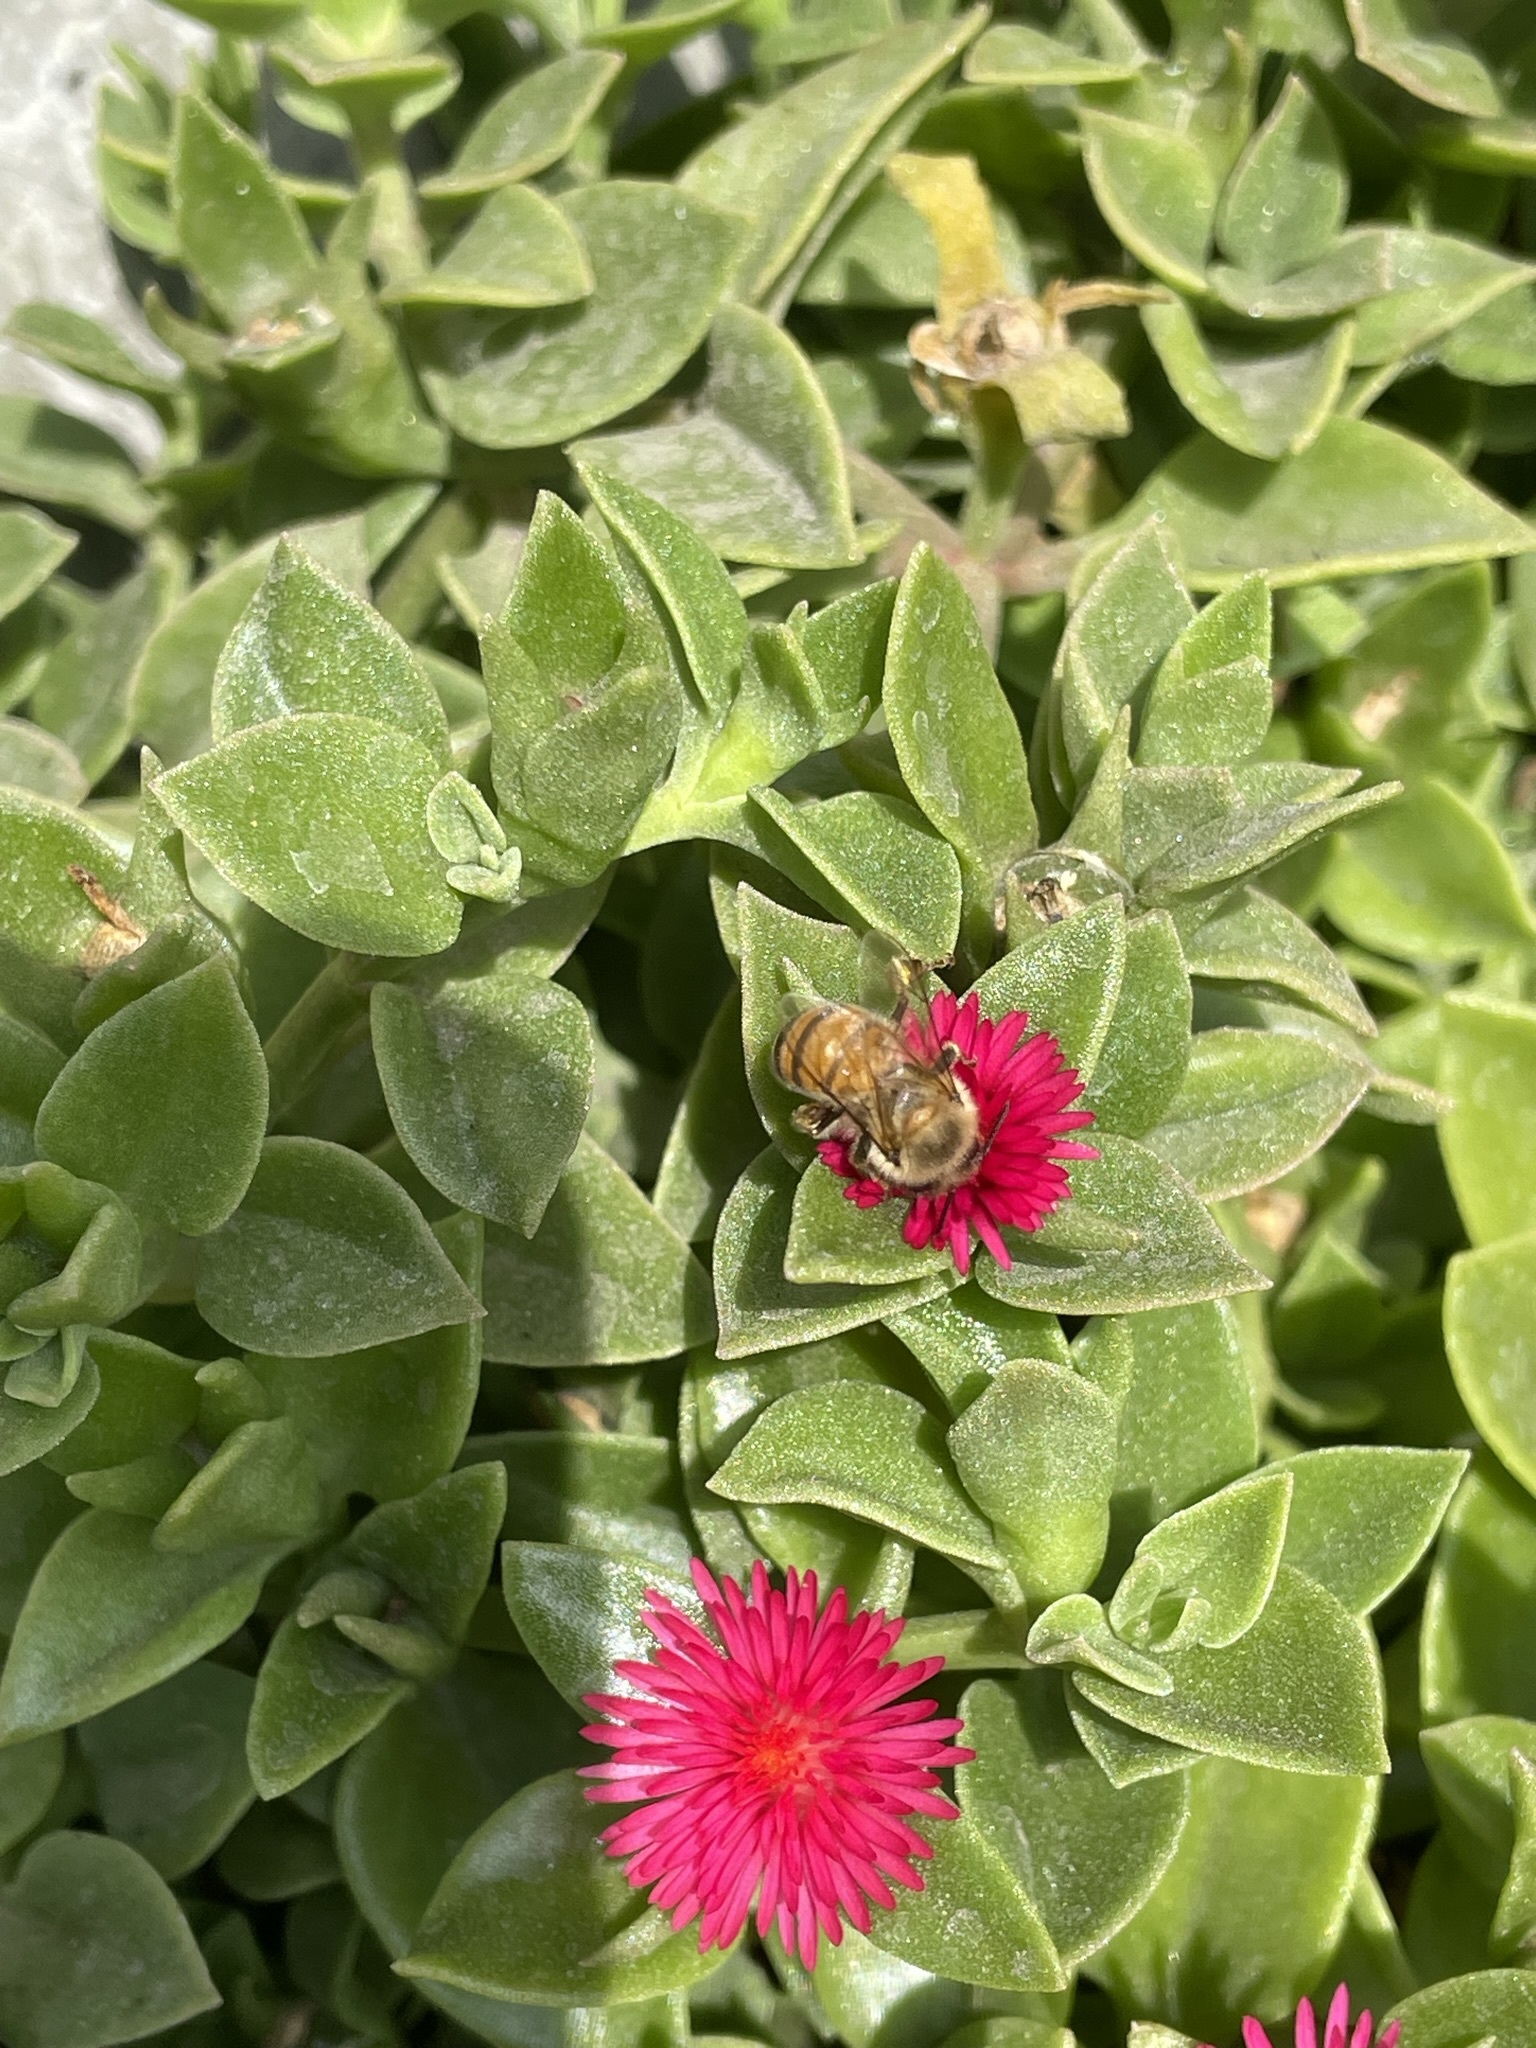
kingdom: Animalia
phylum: Arthropoda
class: Insecta
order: Hymenoptera
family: Apidae
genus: Apis
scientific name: Apis mellifera
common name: Honey bee
